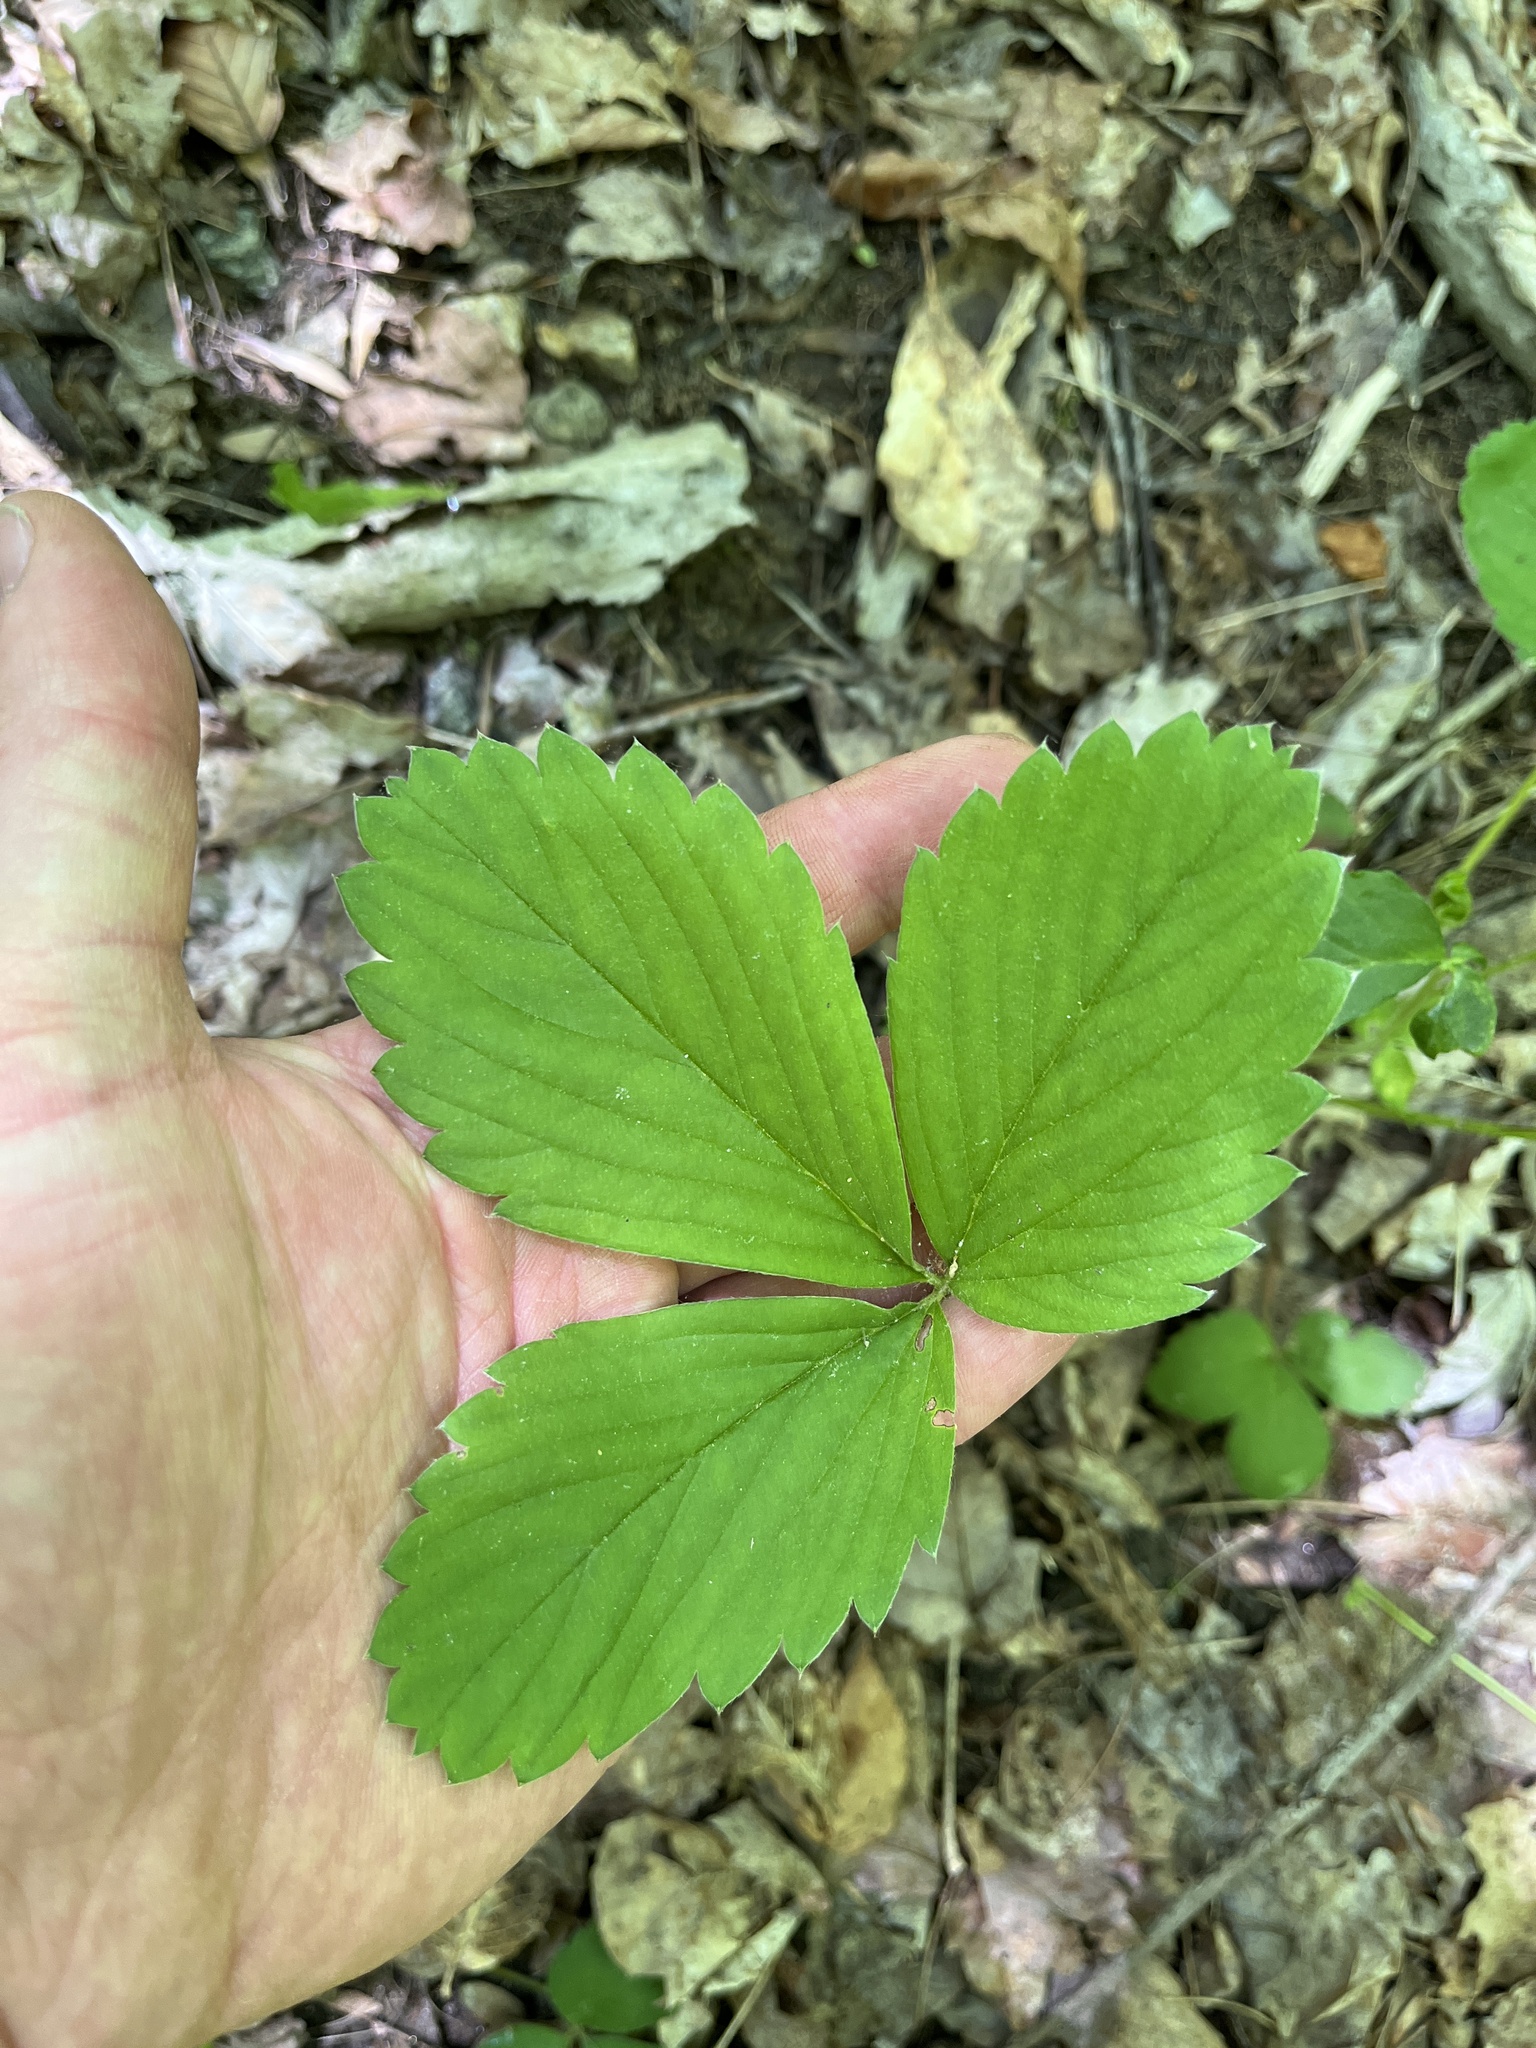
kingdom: Plantae
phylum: Tracheophyta
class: Magnoliopsida
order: Rosales
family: Rosaceae
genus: Fragaria
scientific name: Fragaria virginiana
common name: Thickleaved wild strawberry
